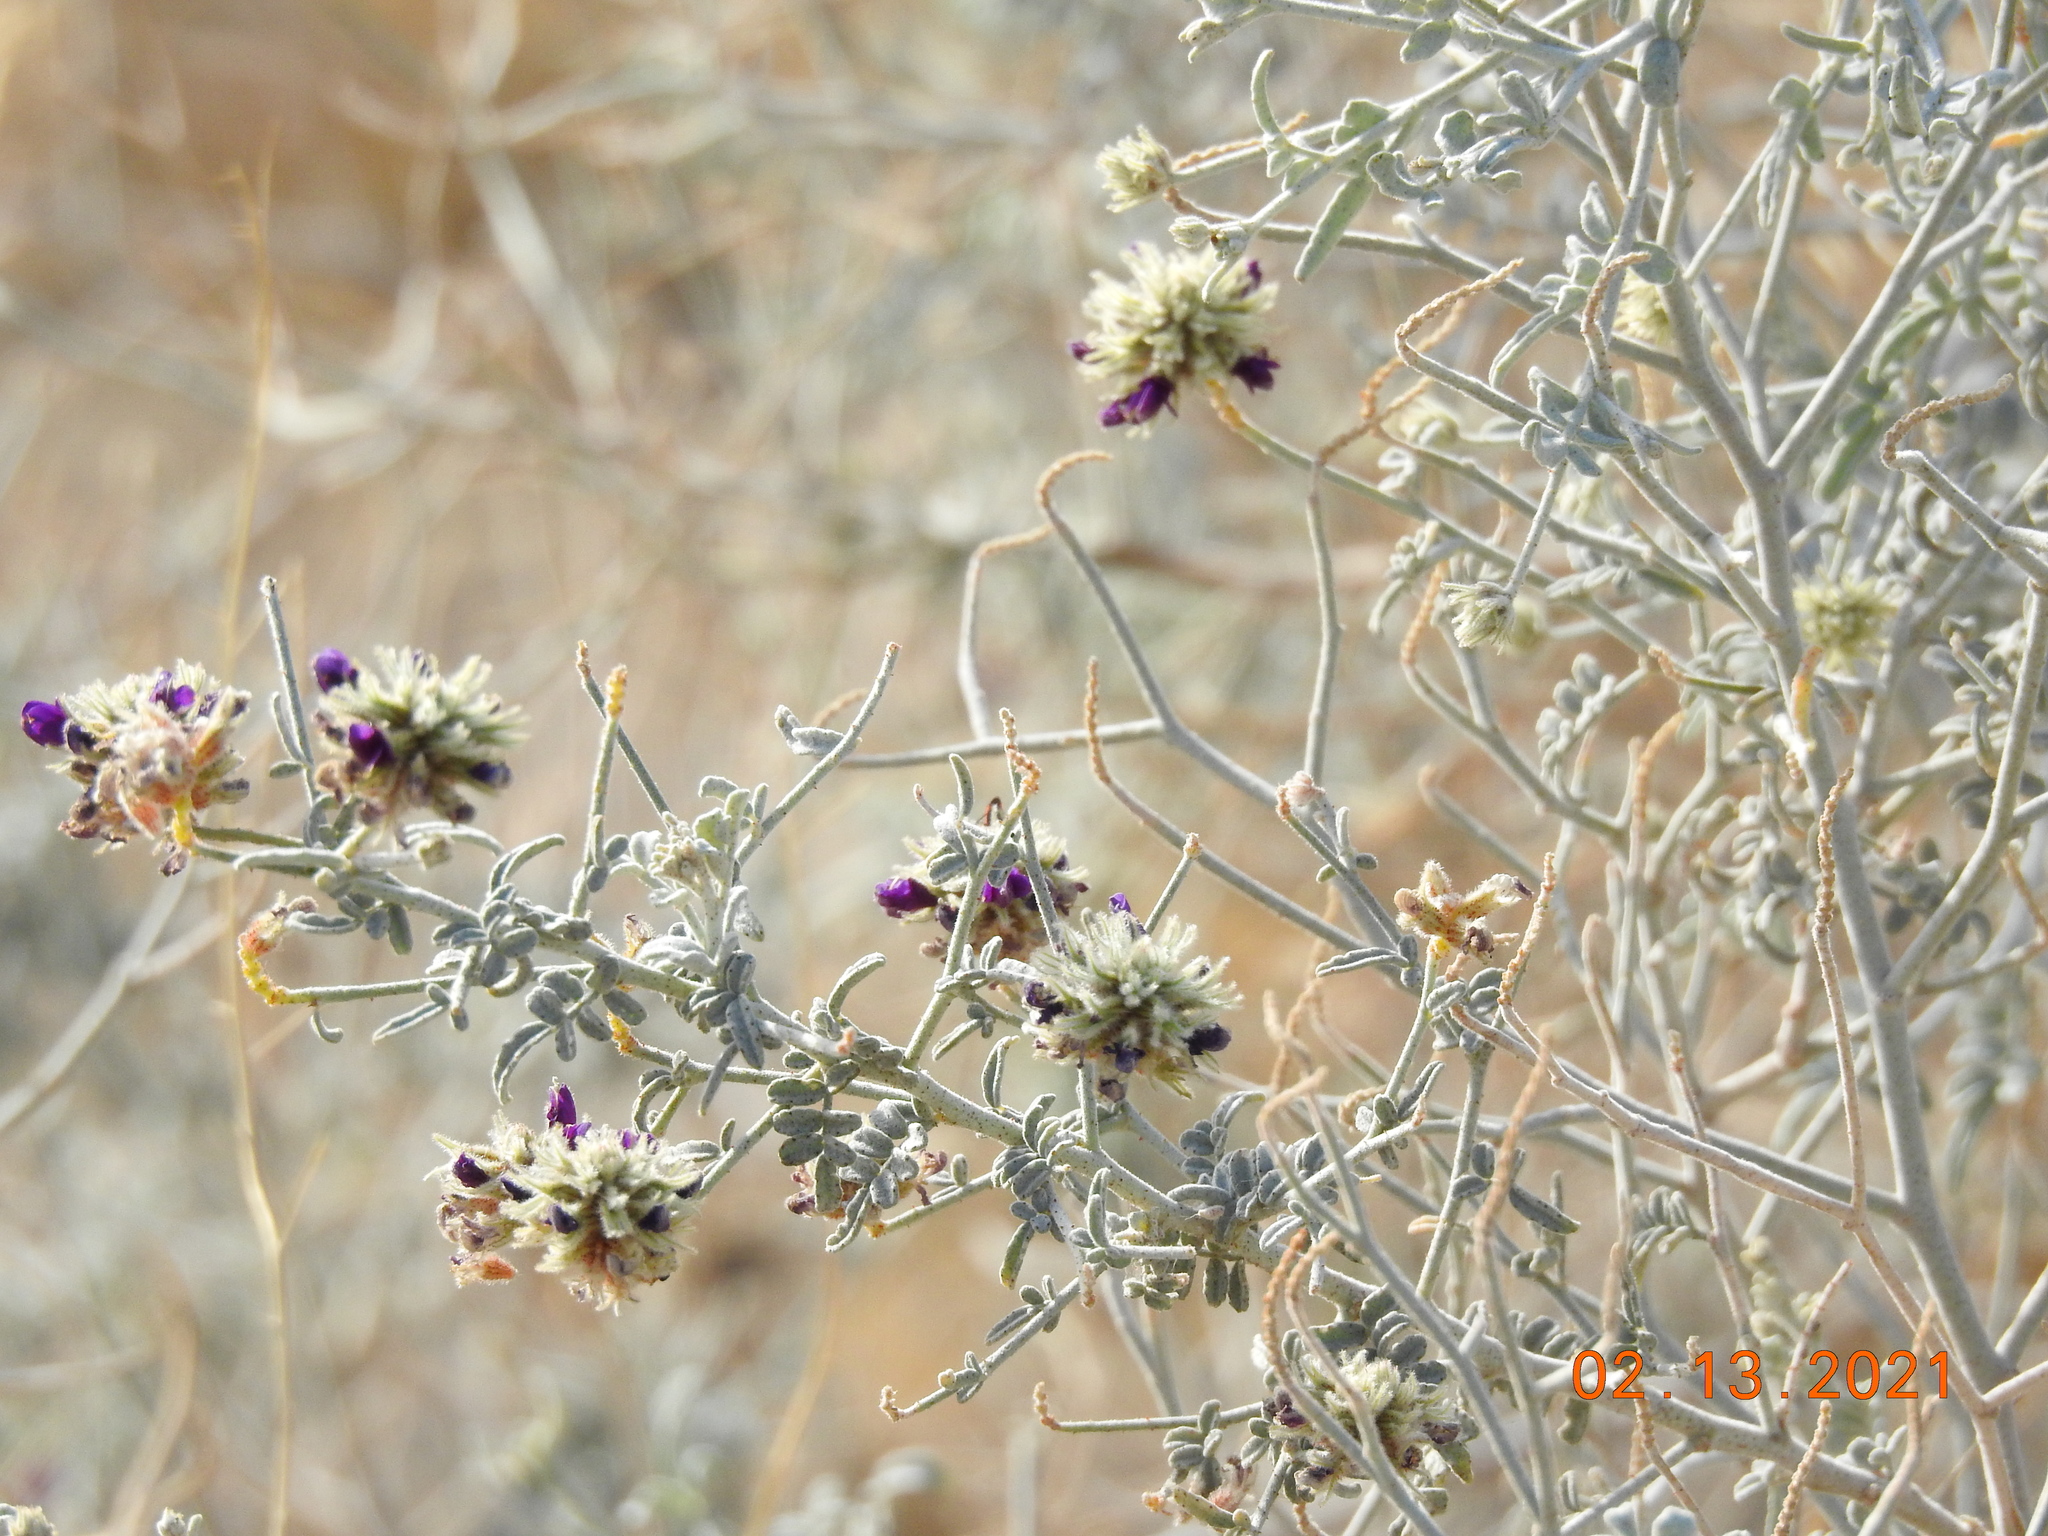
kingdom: Plantae
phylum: Tracheophyta
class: Magnoliopsida
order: Fabales
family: Fabaceae
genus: Psorothamnus
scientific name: Psorothamnus emoryi
